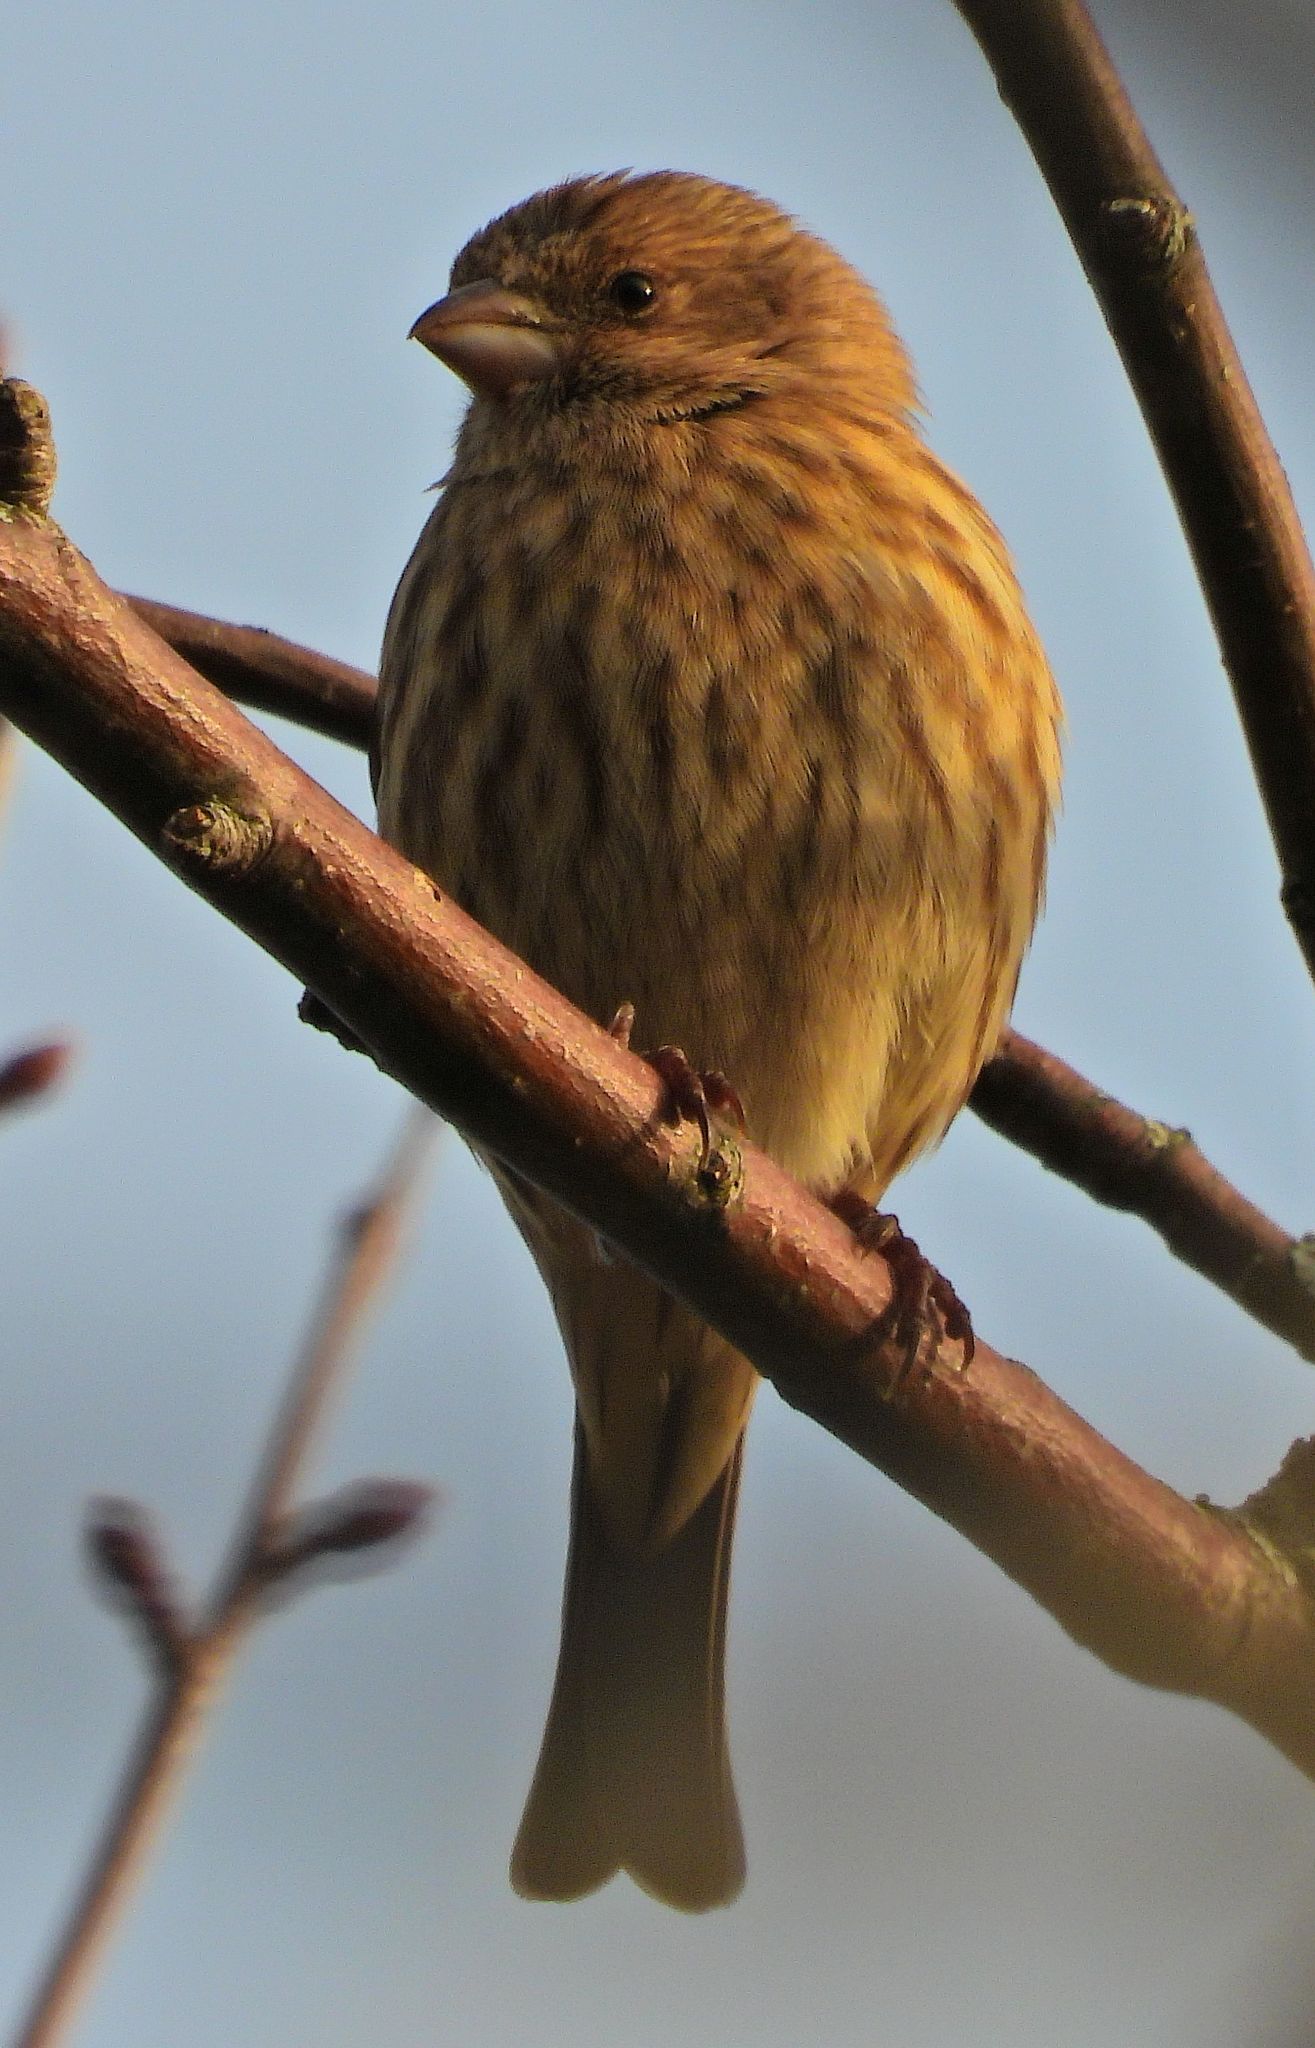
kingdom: Animalia
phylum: Chordata
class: Aves
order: Passeriformes
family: Fringillidae
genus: Haemorhous
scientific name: Haemorhous mexicanus
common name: House finch
